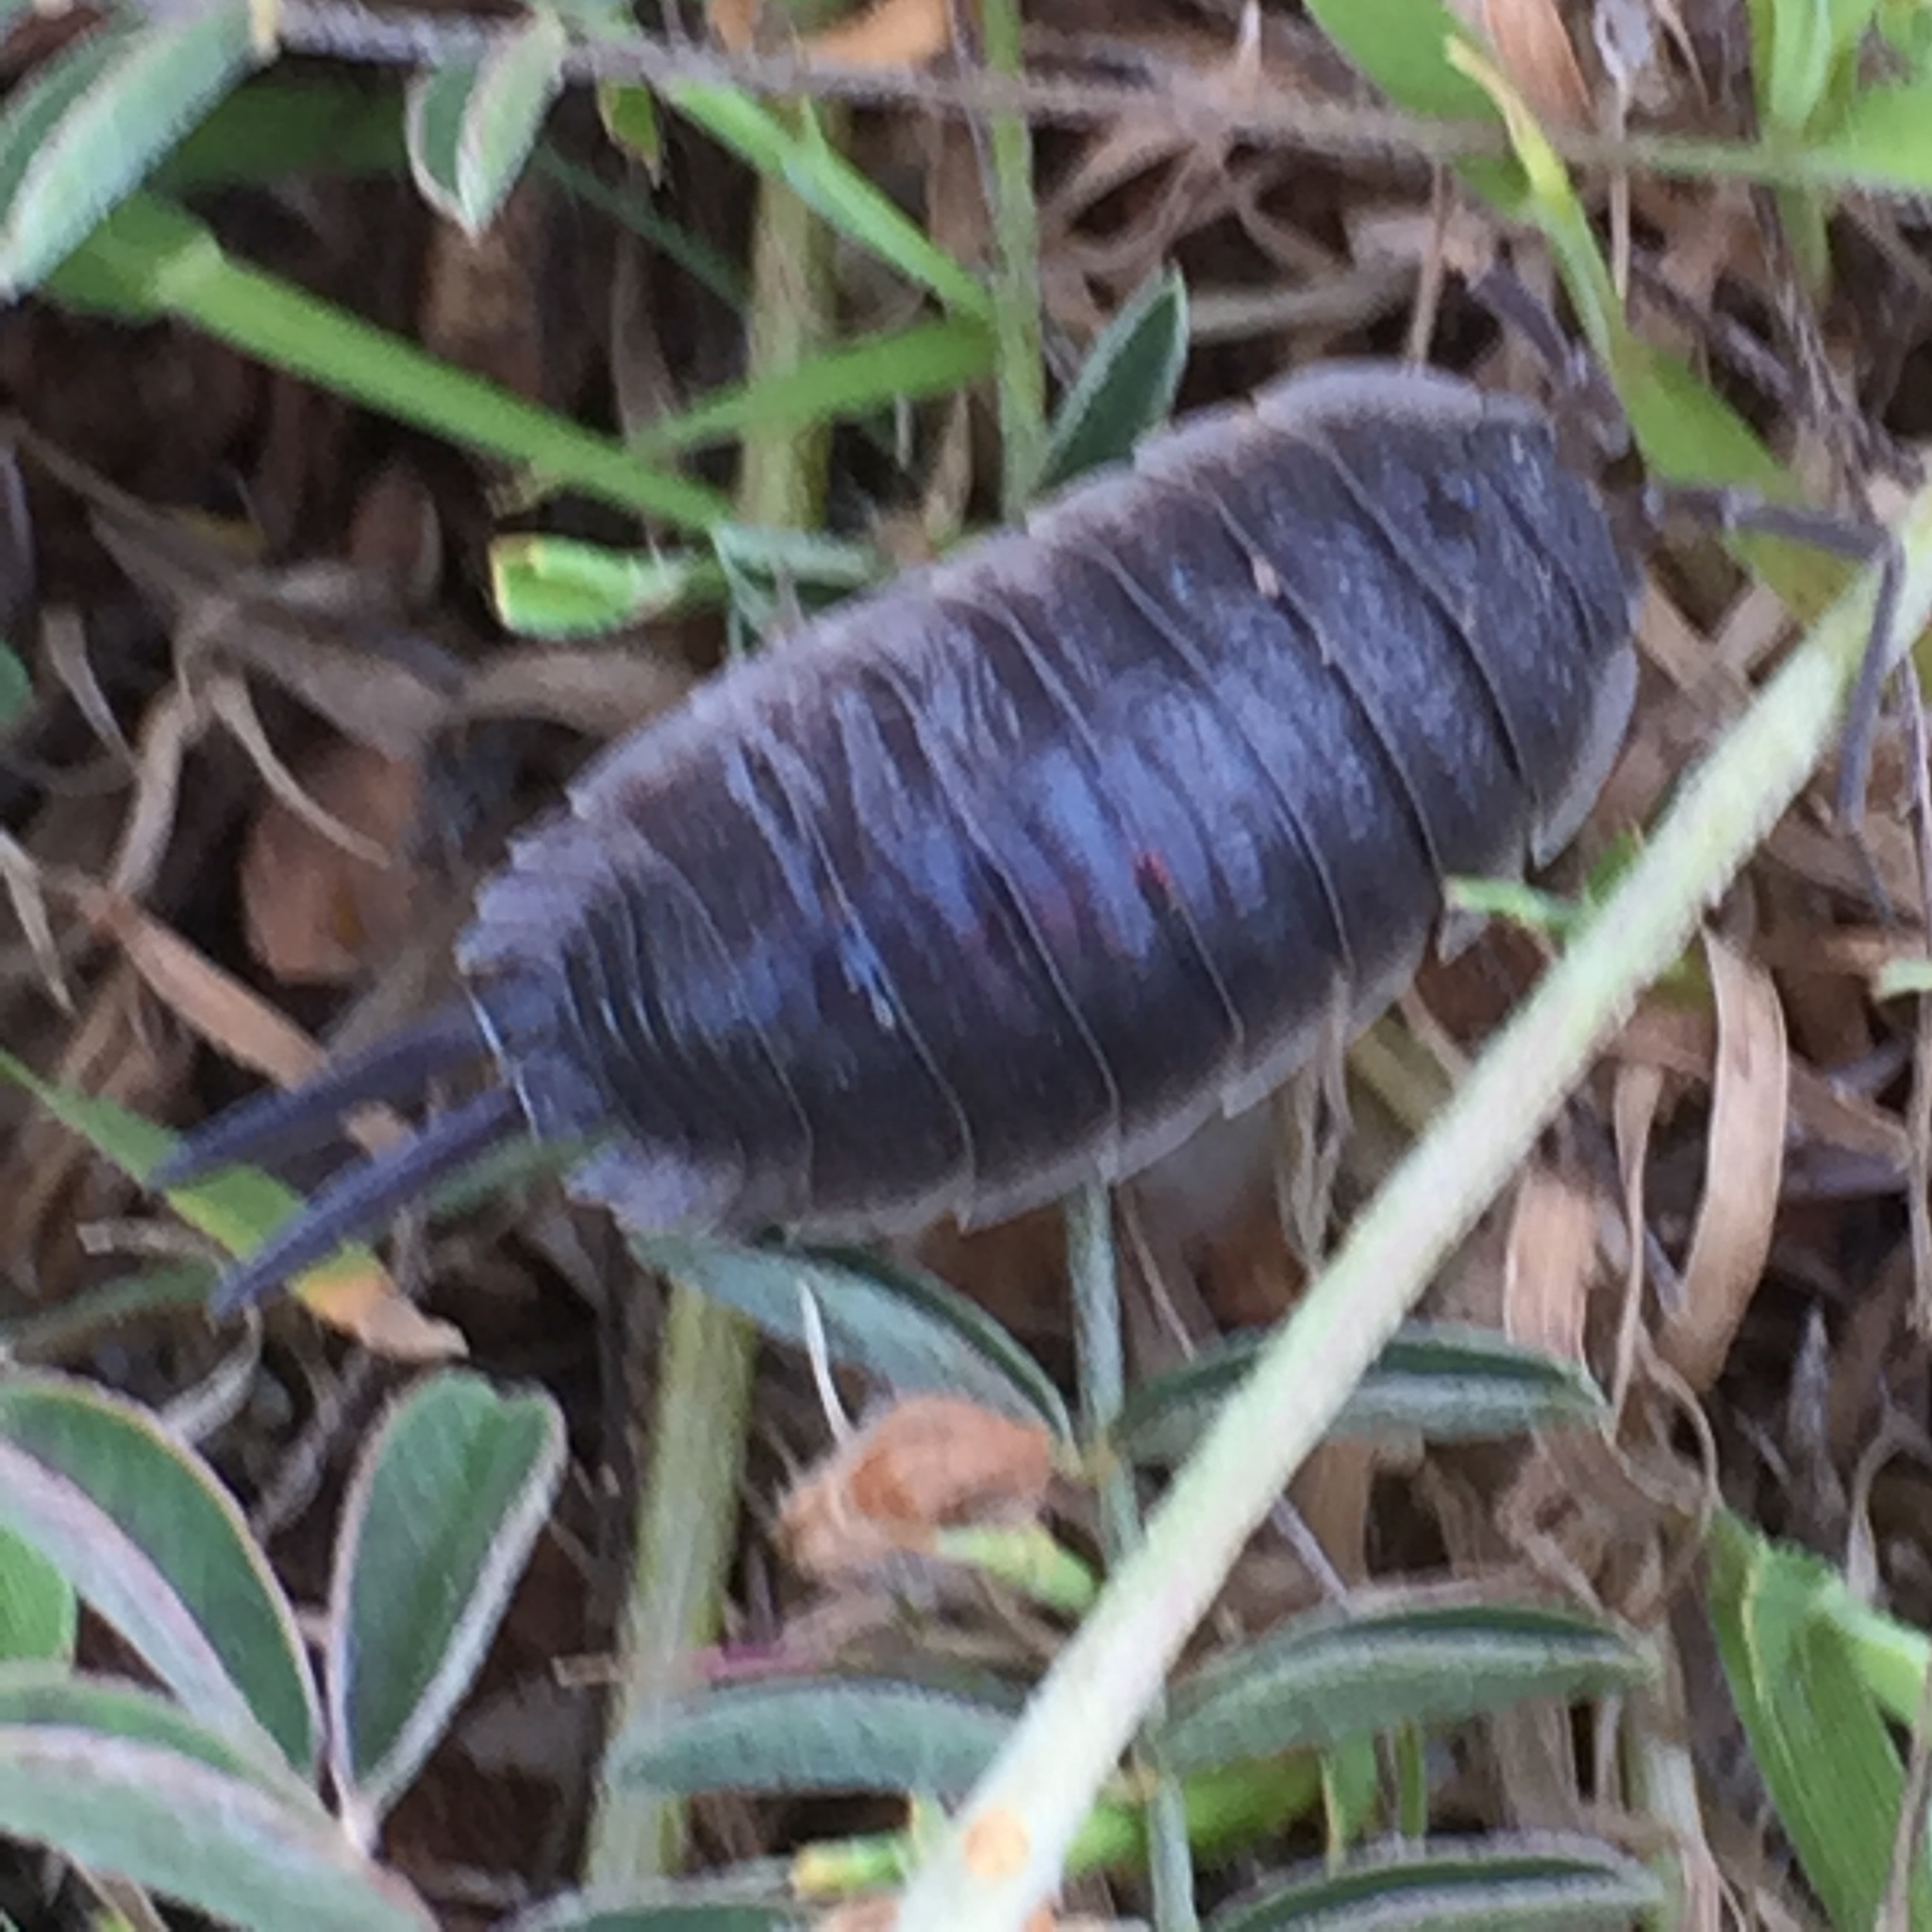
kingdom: Animalia
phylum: Arthropoda
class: Malacostraca
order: Isopoda
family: Porcellionidae
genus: Porcellio
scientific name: Porcellio hoffmannseggii
